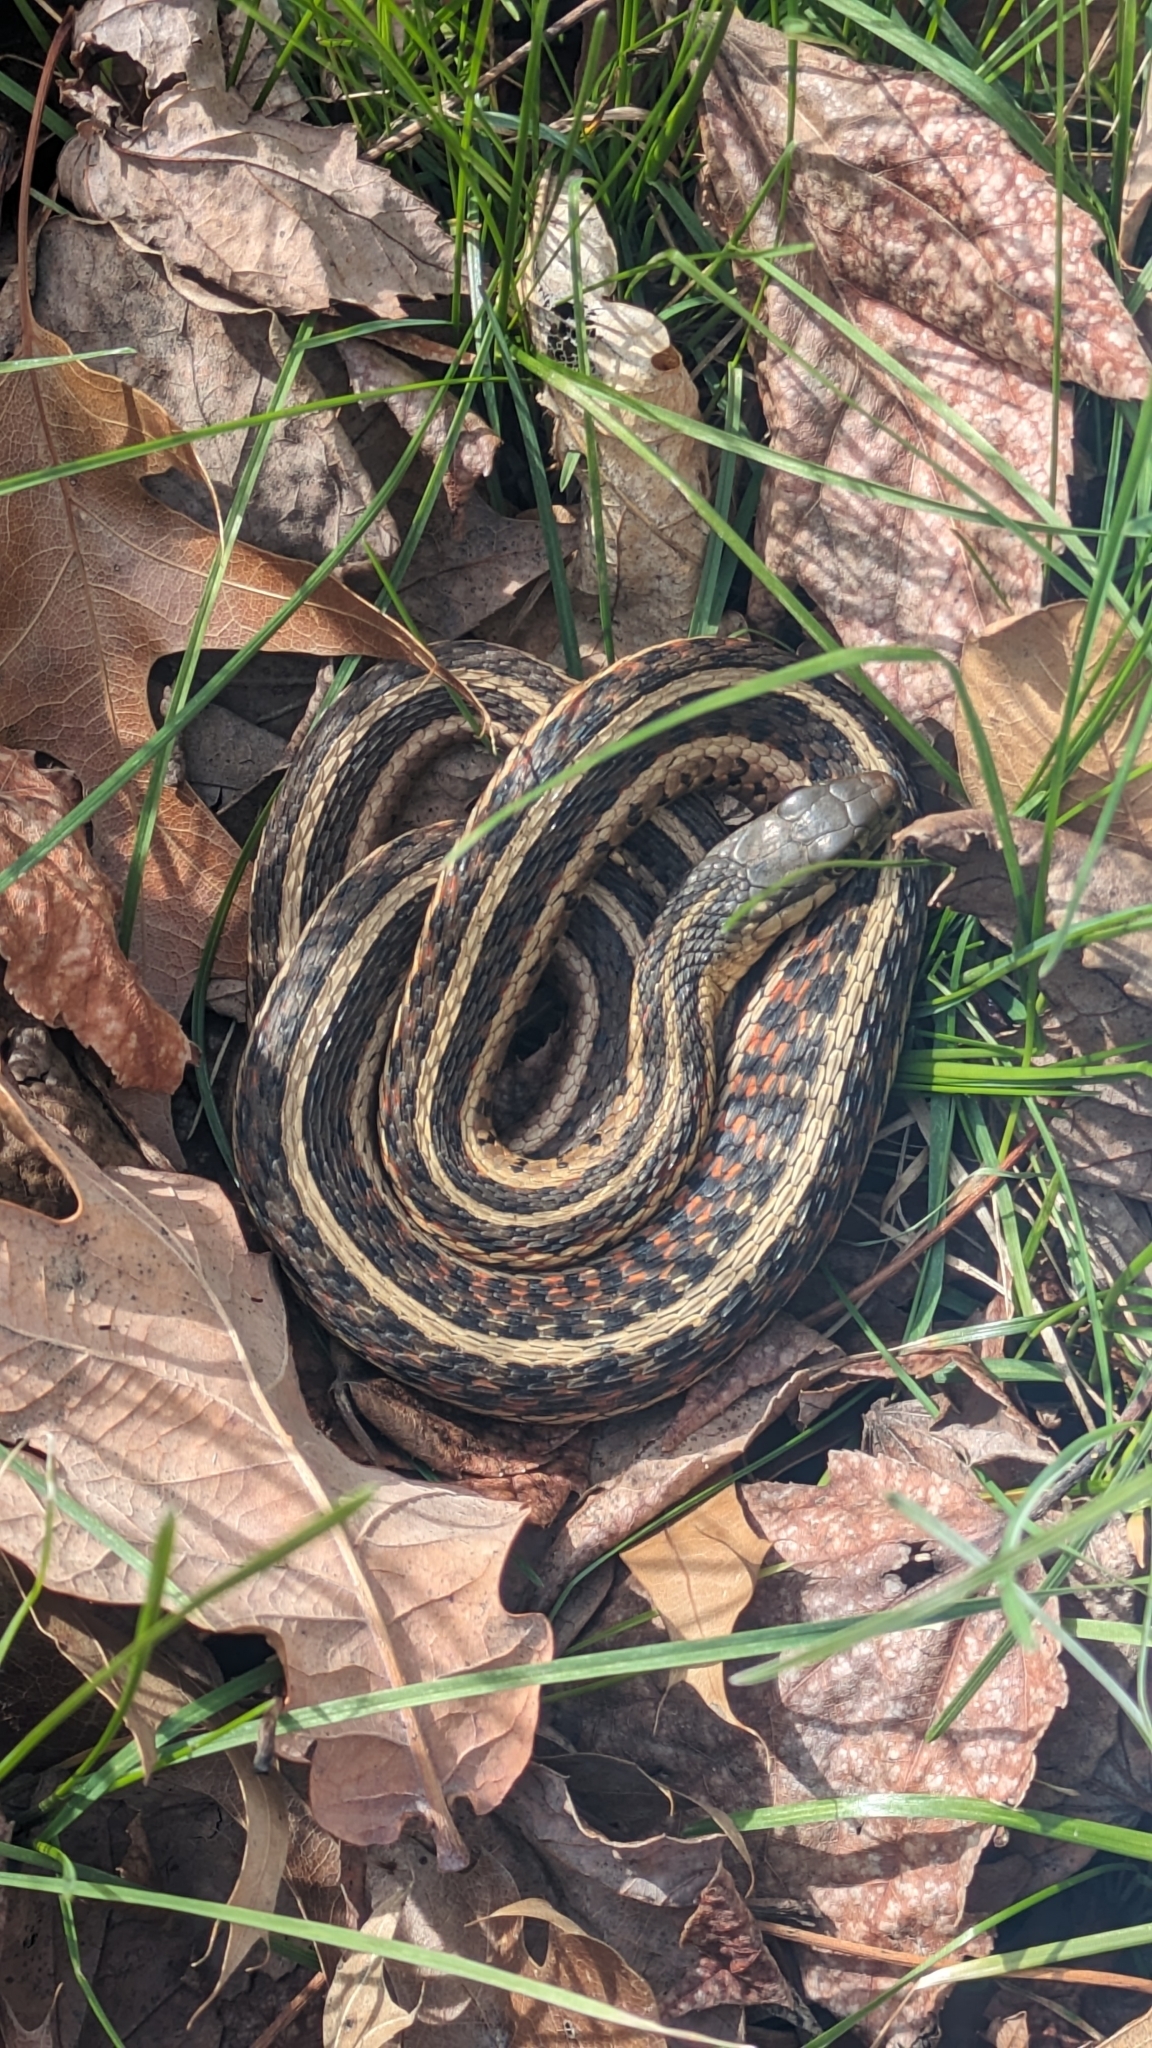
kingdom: Animalia
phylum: Chordata
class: Squamata
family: Colubridae
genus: Thamnophis
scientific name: Thamnophis sirtalis
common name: Common garter snake
